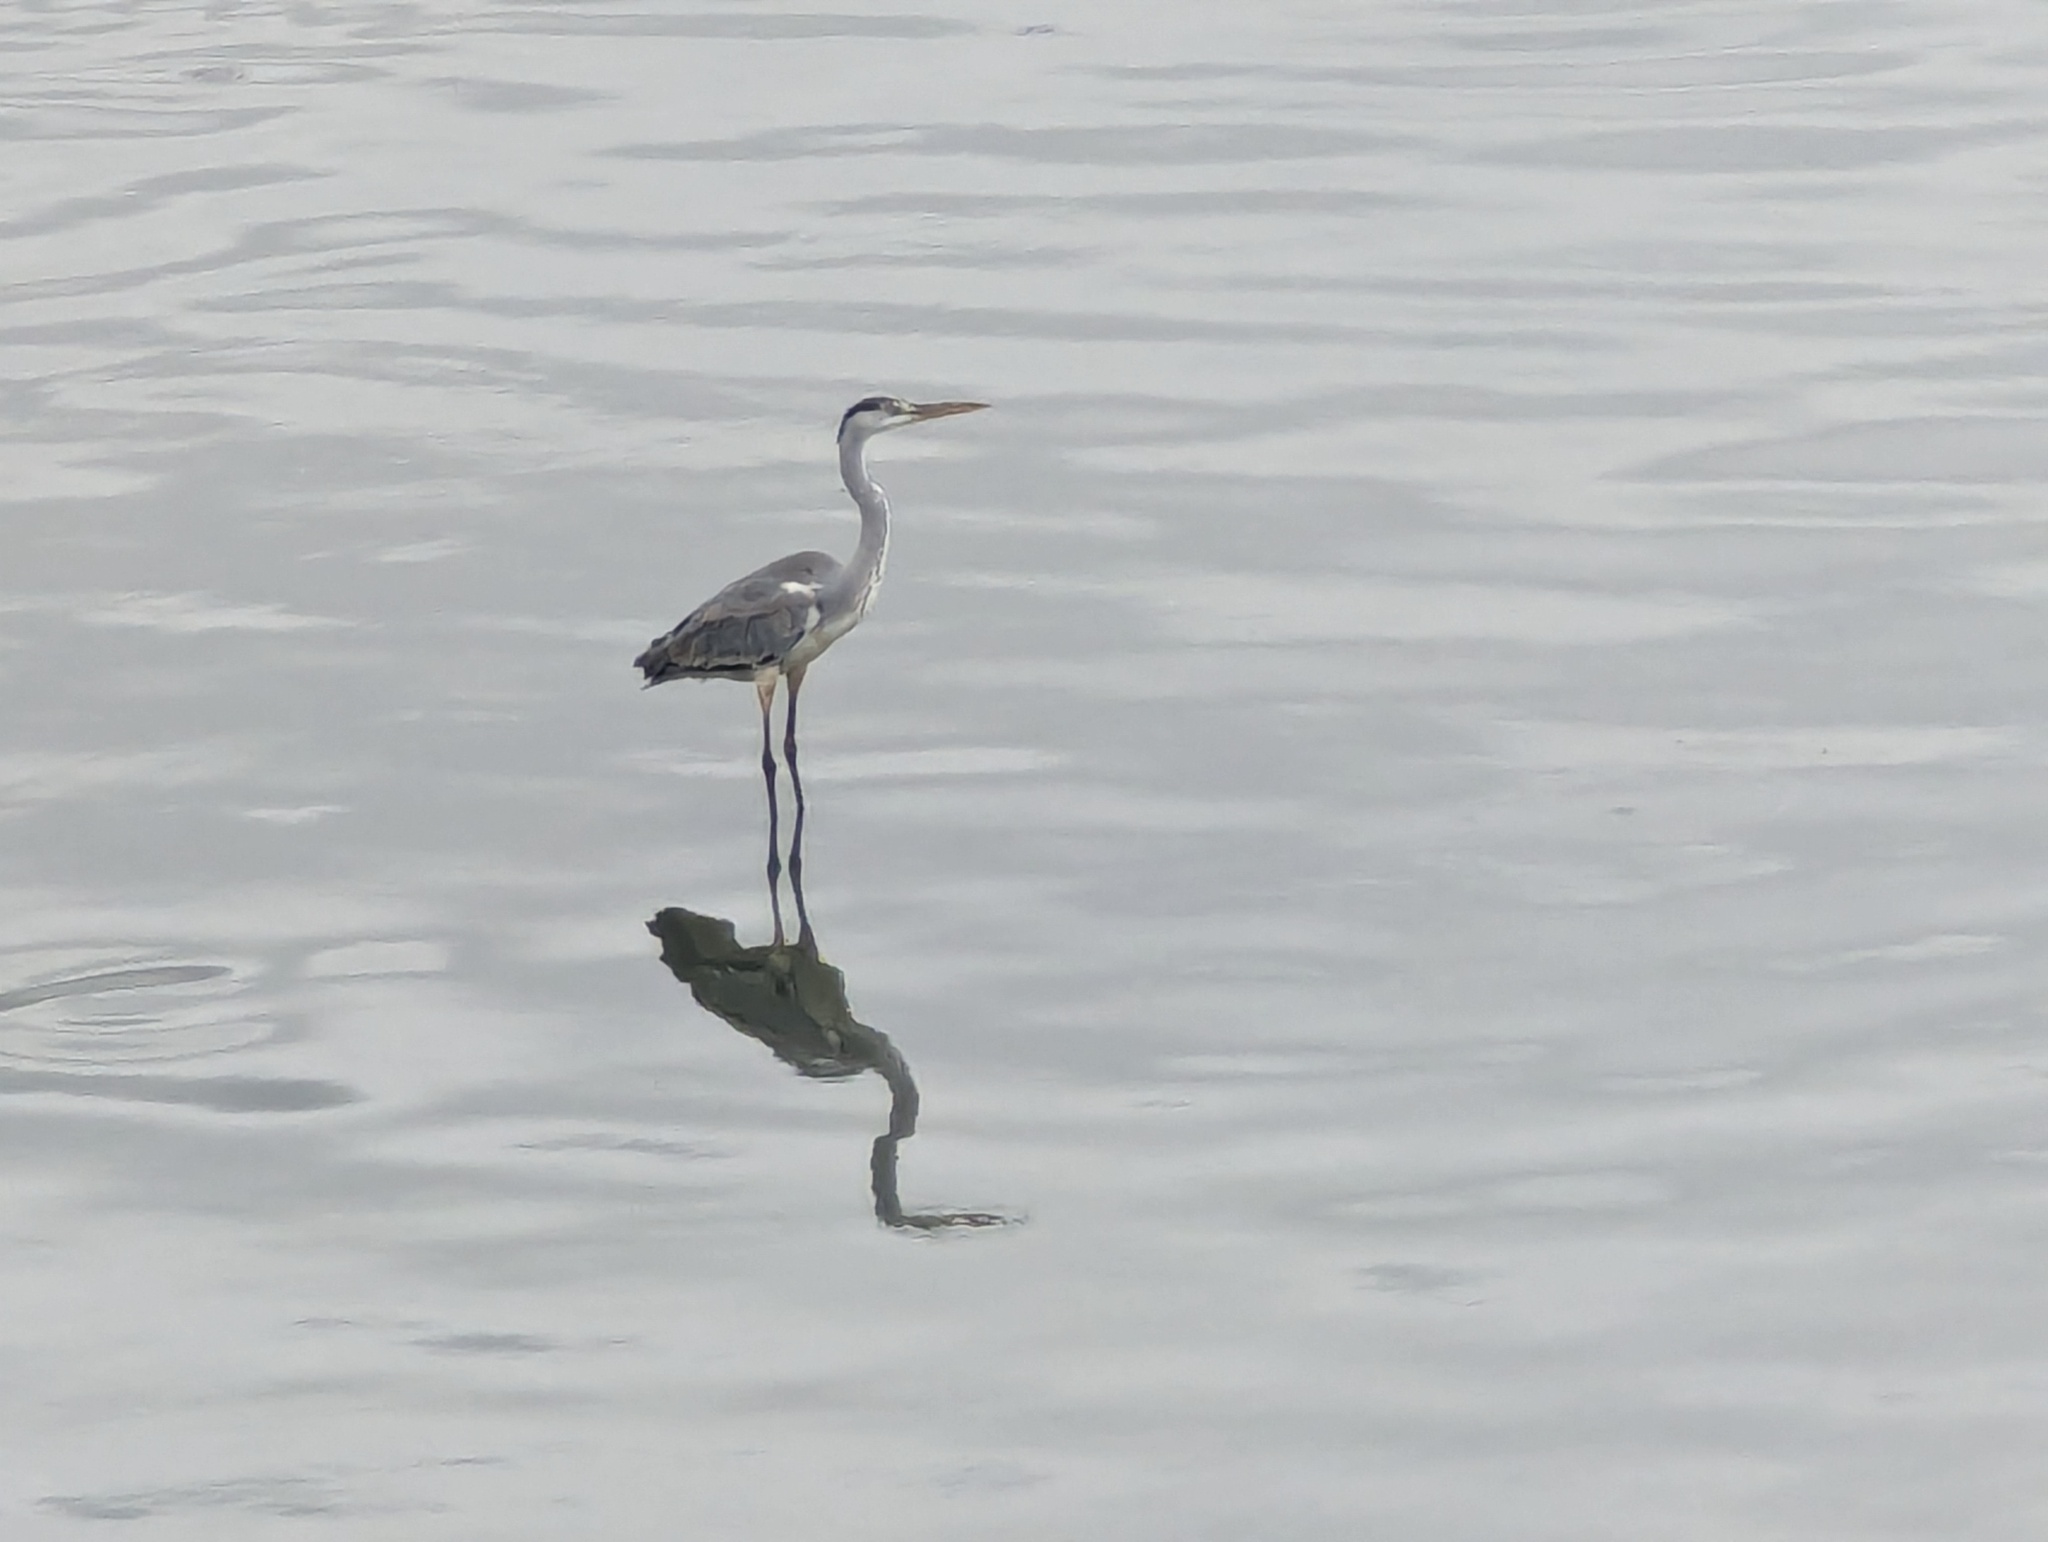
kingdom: Animalia
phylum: Chordata
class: Aves
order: Pelecaniformes
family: Ardeidae
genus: Ardea
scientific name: Ardea cinerea
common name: Grey heron
